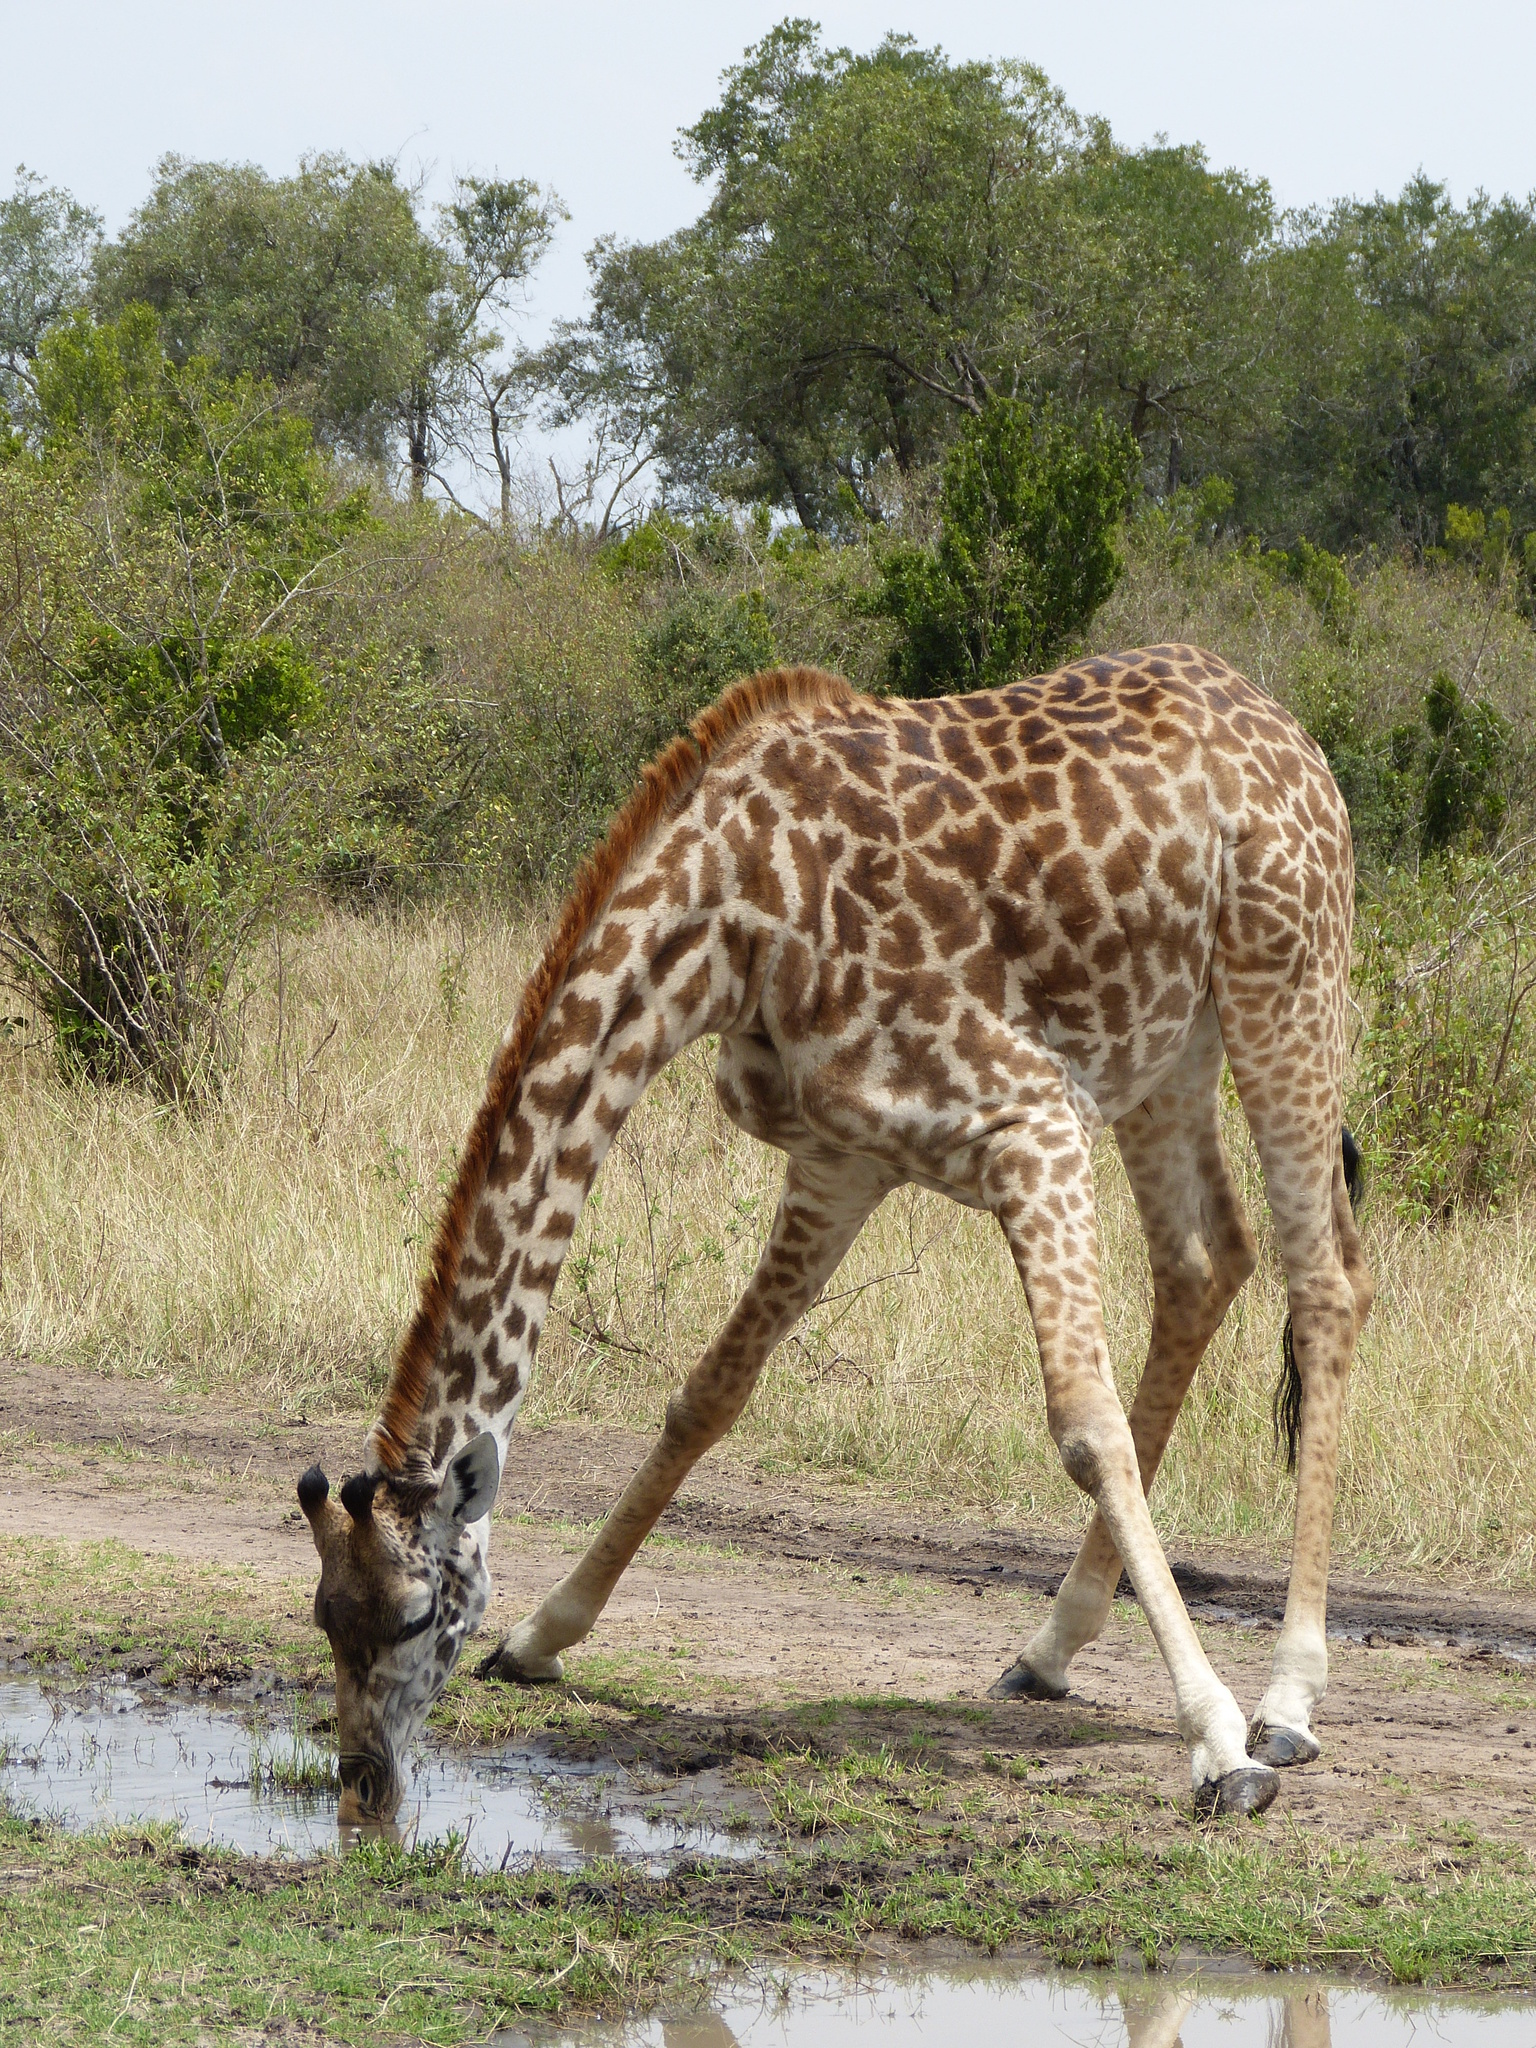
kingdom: Animalia
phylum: Chordata
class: Mammalia
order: Artiodactyla
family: Giraffidae
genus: Giraffa
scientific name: Giraffa tippelskirchi
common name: Masai giraffe
